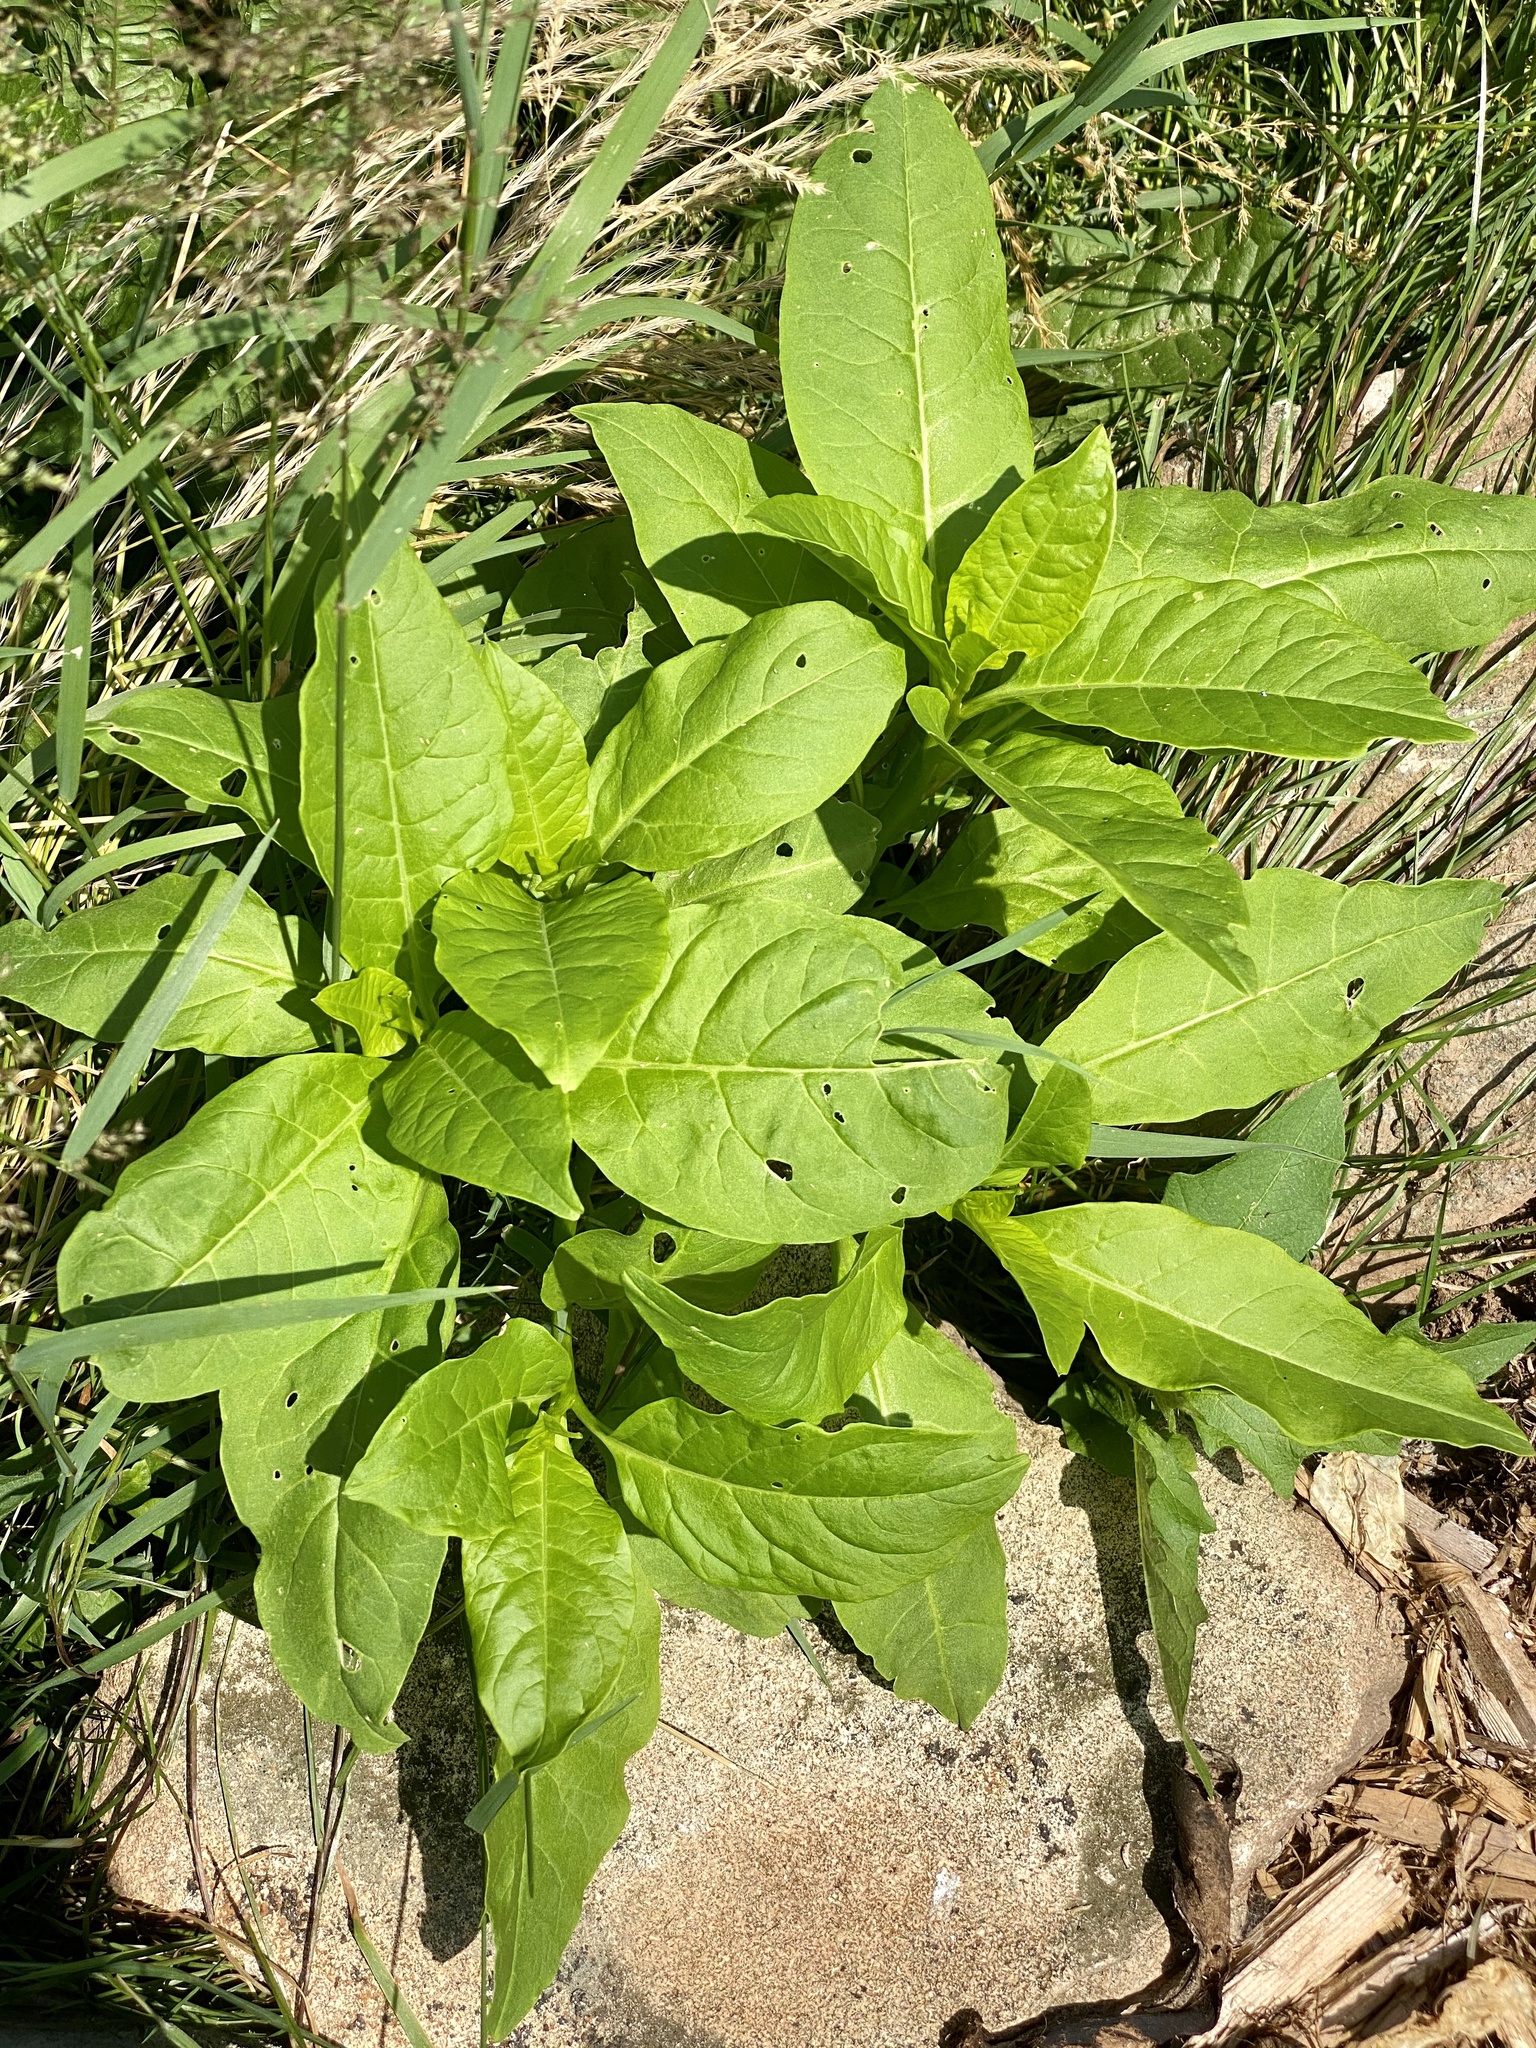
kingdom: Plantae
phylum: Tracheophyta
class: Magnoliopsida
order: Caryophyllales
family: Phytolaccaceae
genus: Phytolacca
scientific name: Phytolacca americana
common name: American pokeweed
